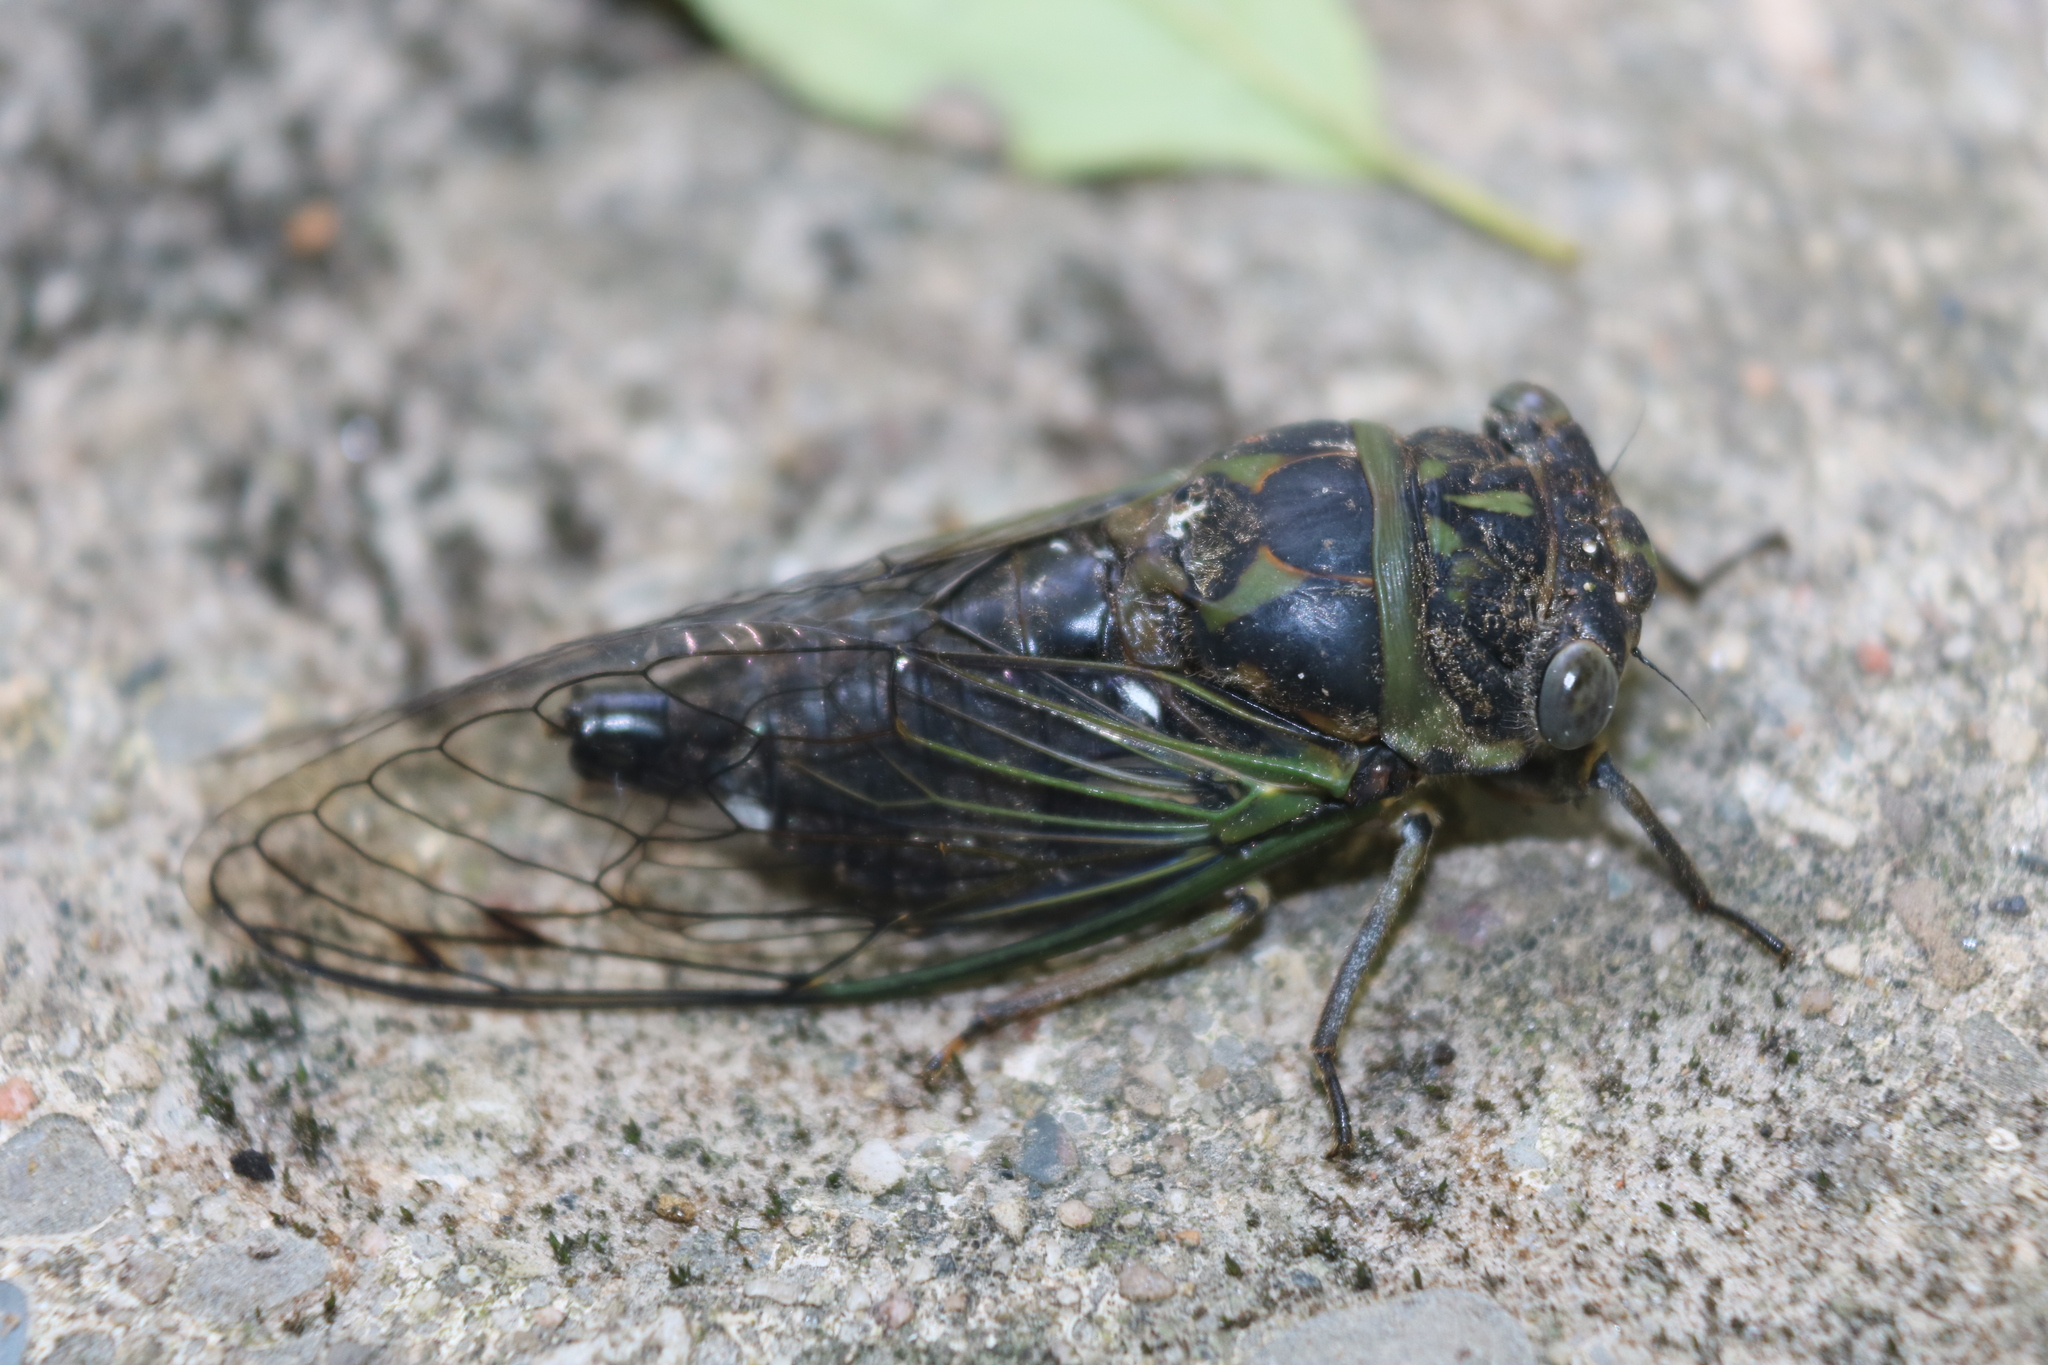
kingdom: Animalia
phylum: Arthropoda
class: Insecta
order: Hemiptera
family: Cicadidae
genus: Neotibicen
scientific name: Neotibicen canicularis
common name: God-day cicada
